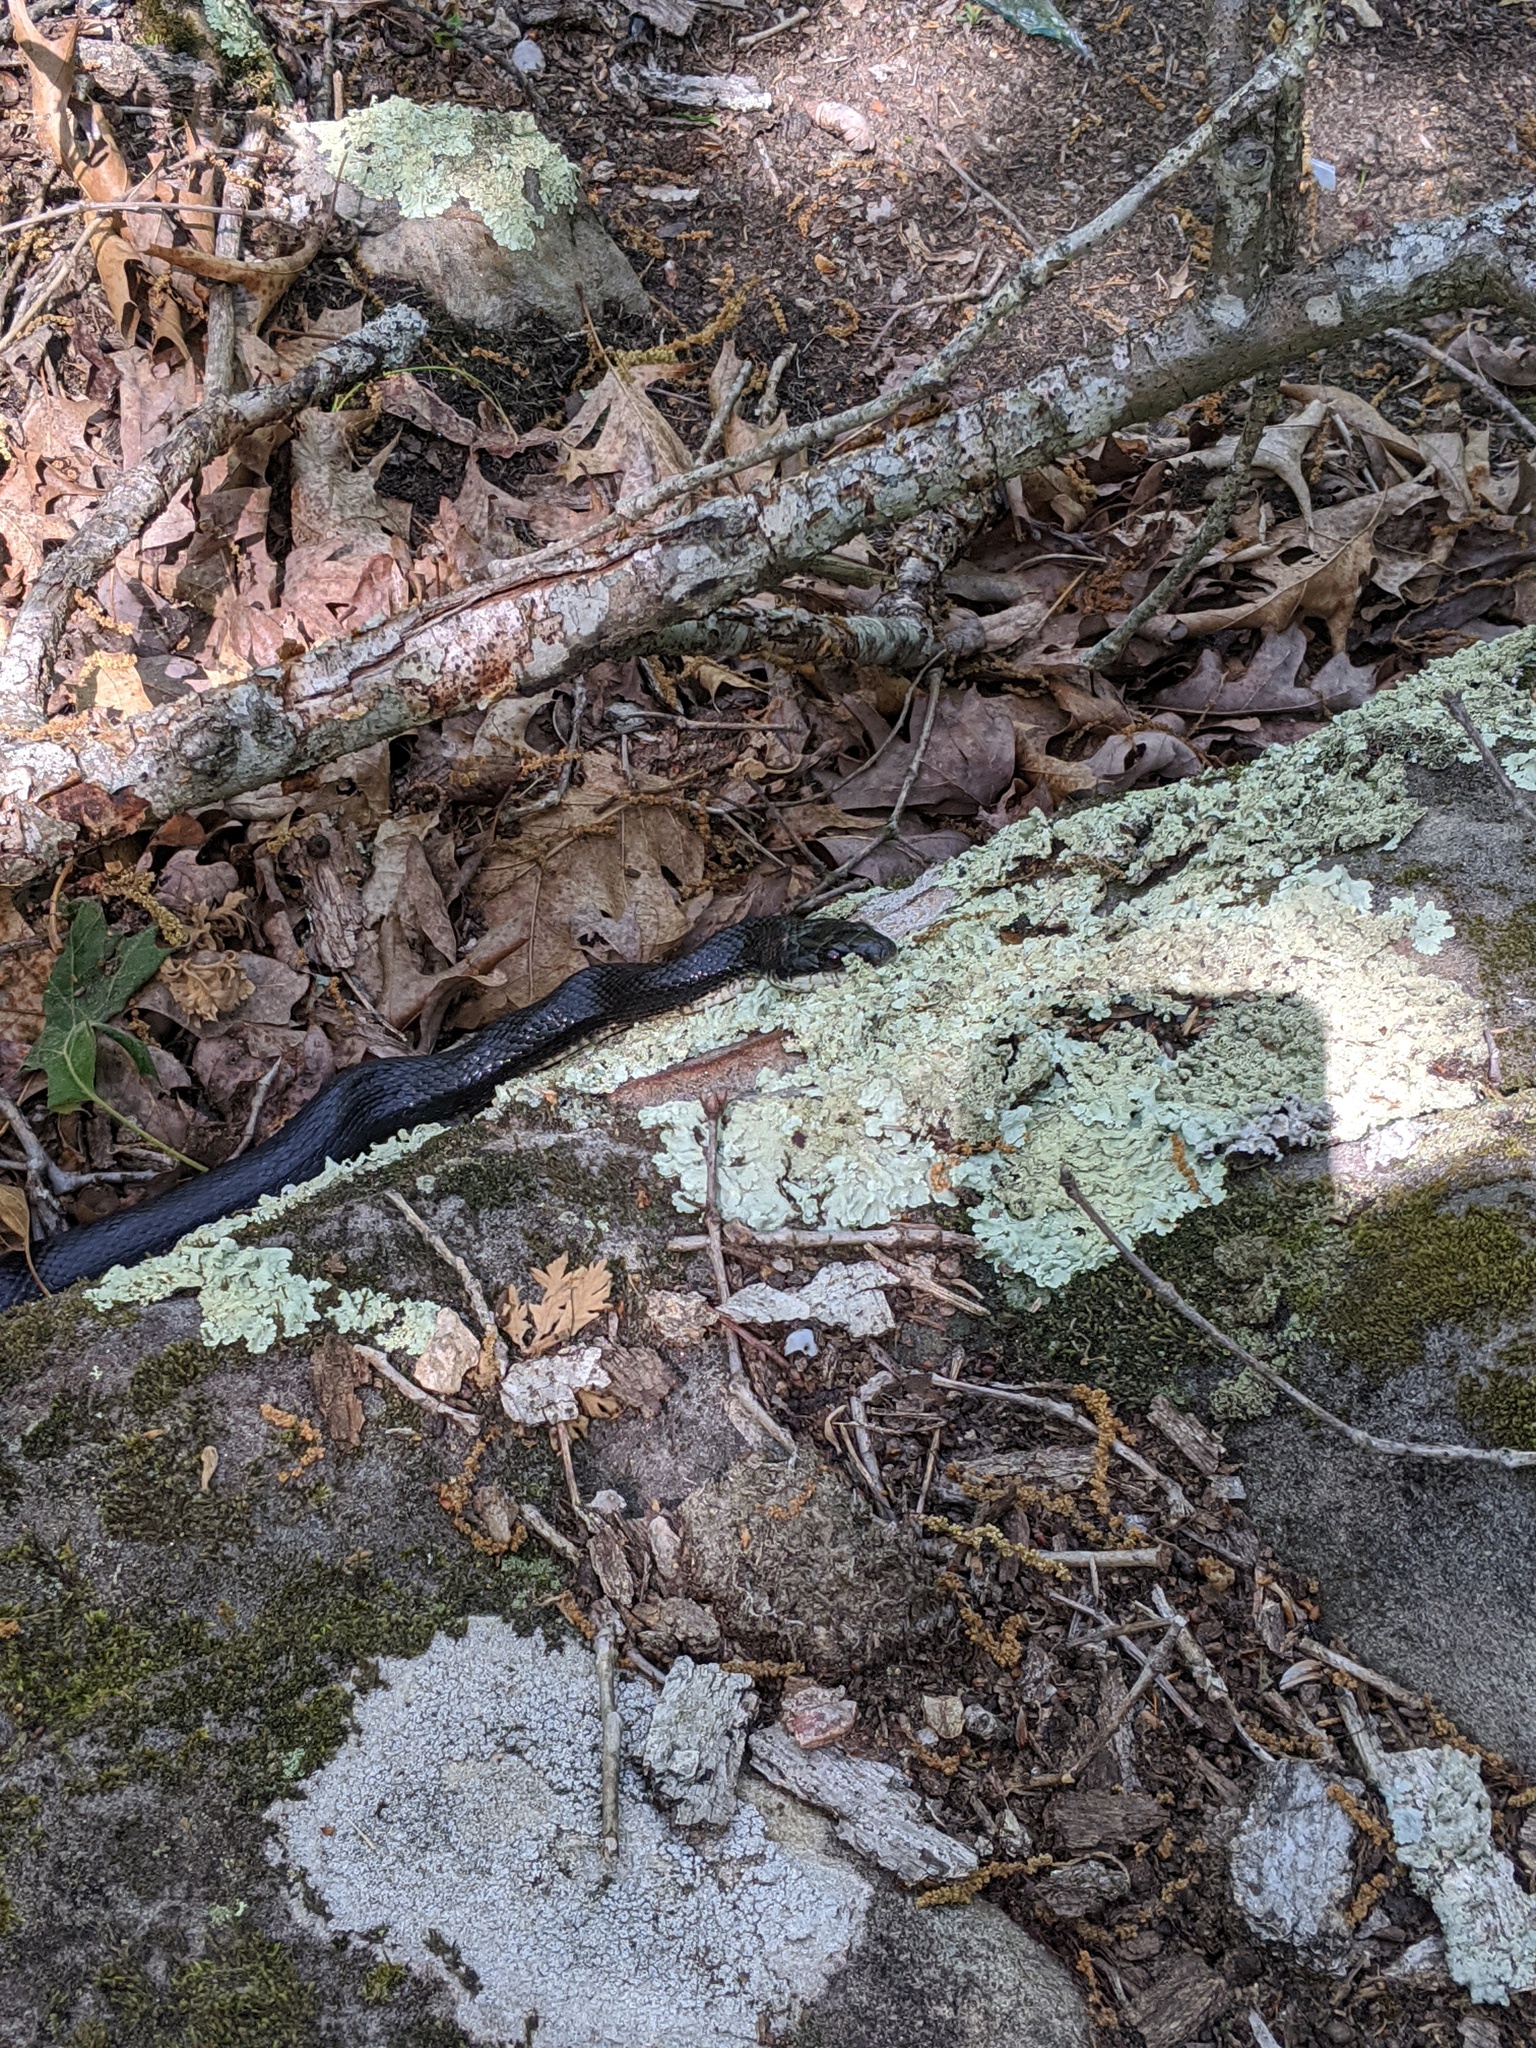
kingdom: Animalia
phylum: Chordata
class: Squamata
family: Colubridae
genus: Pantherophis
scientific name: Pantherophis obsoletus
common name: Black rat snake
